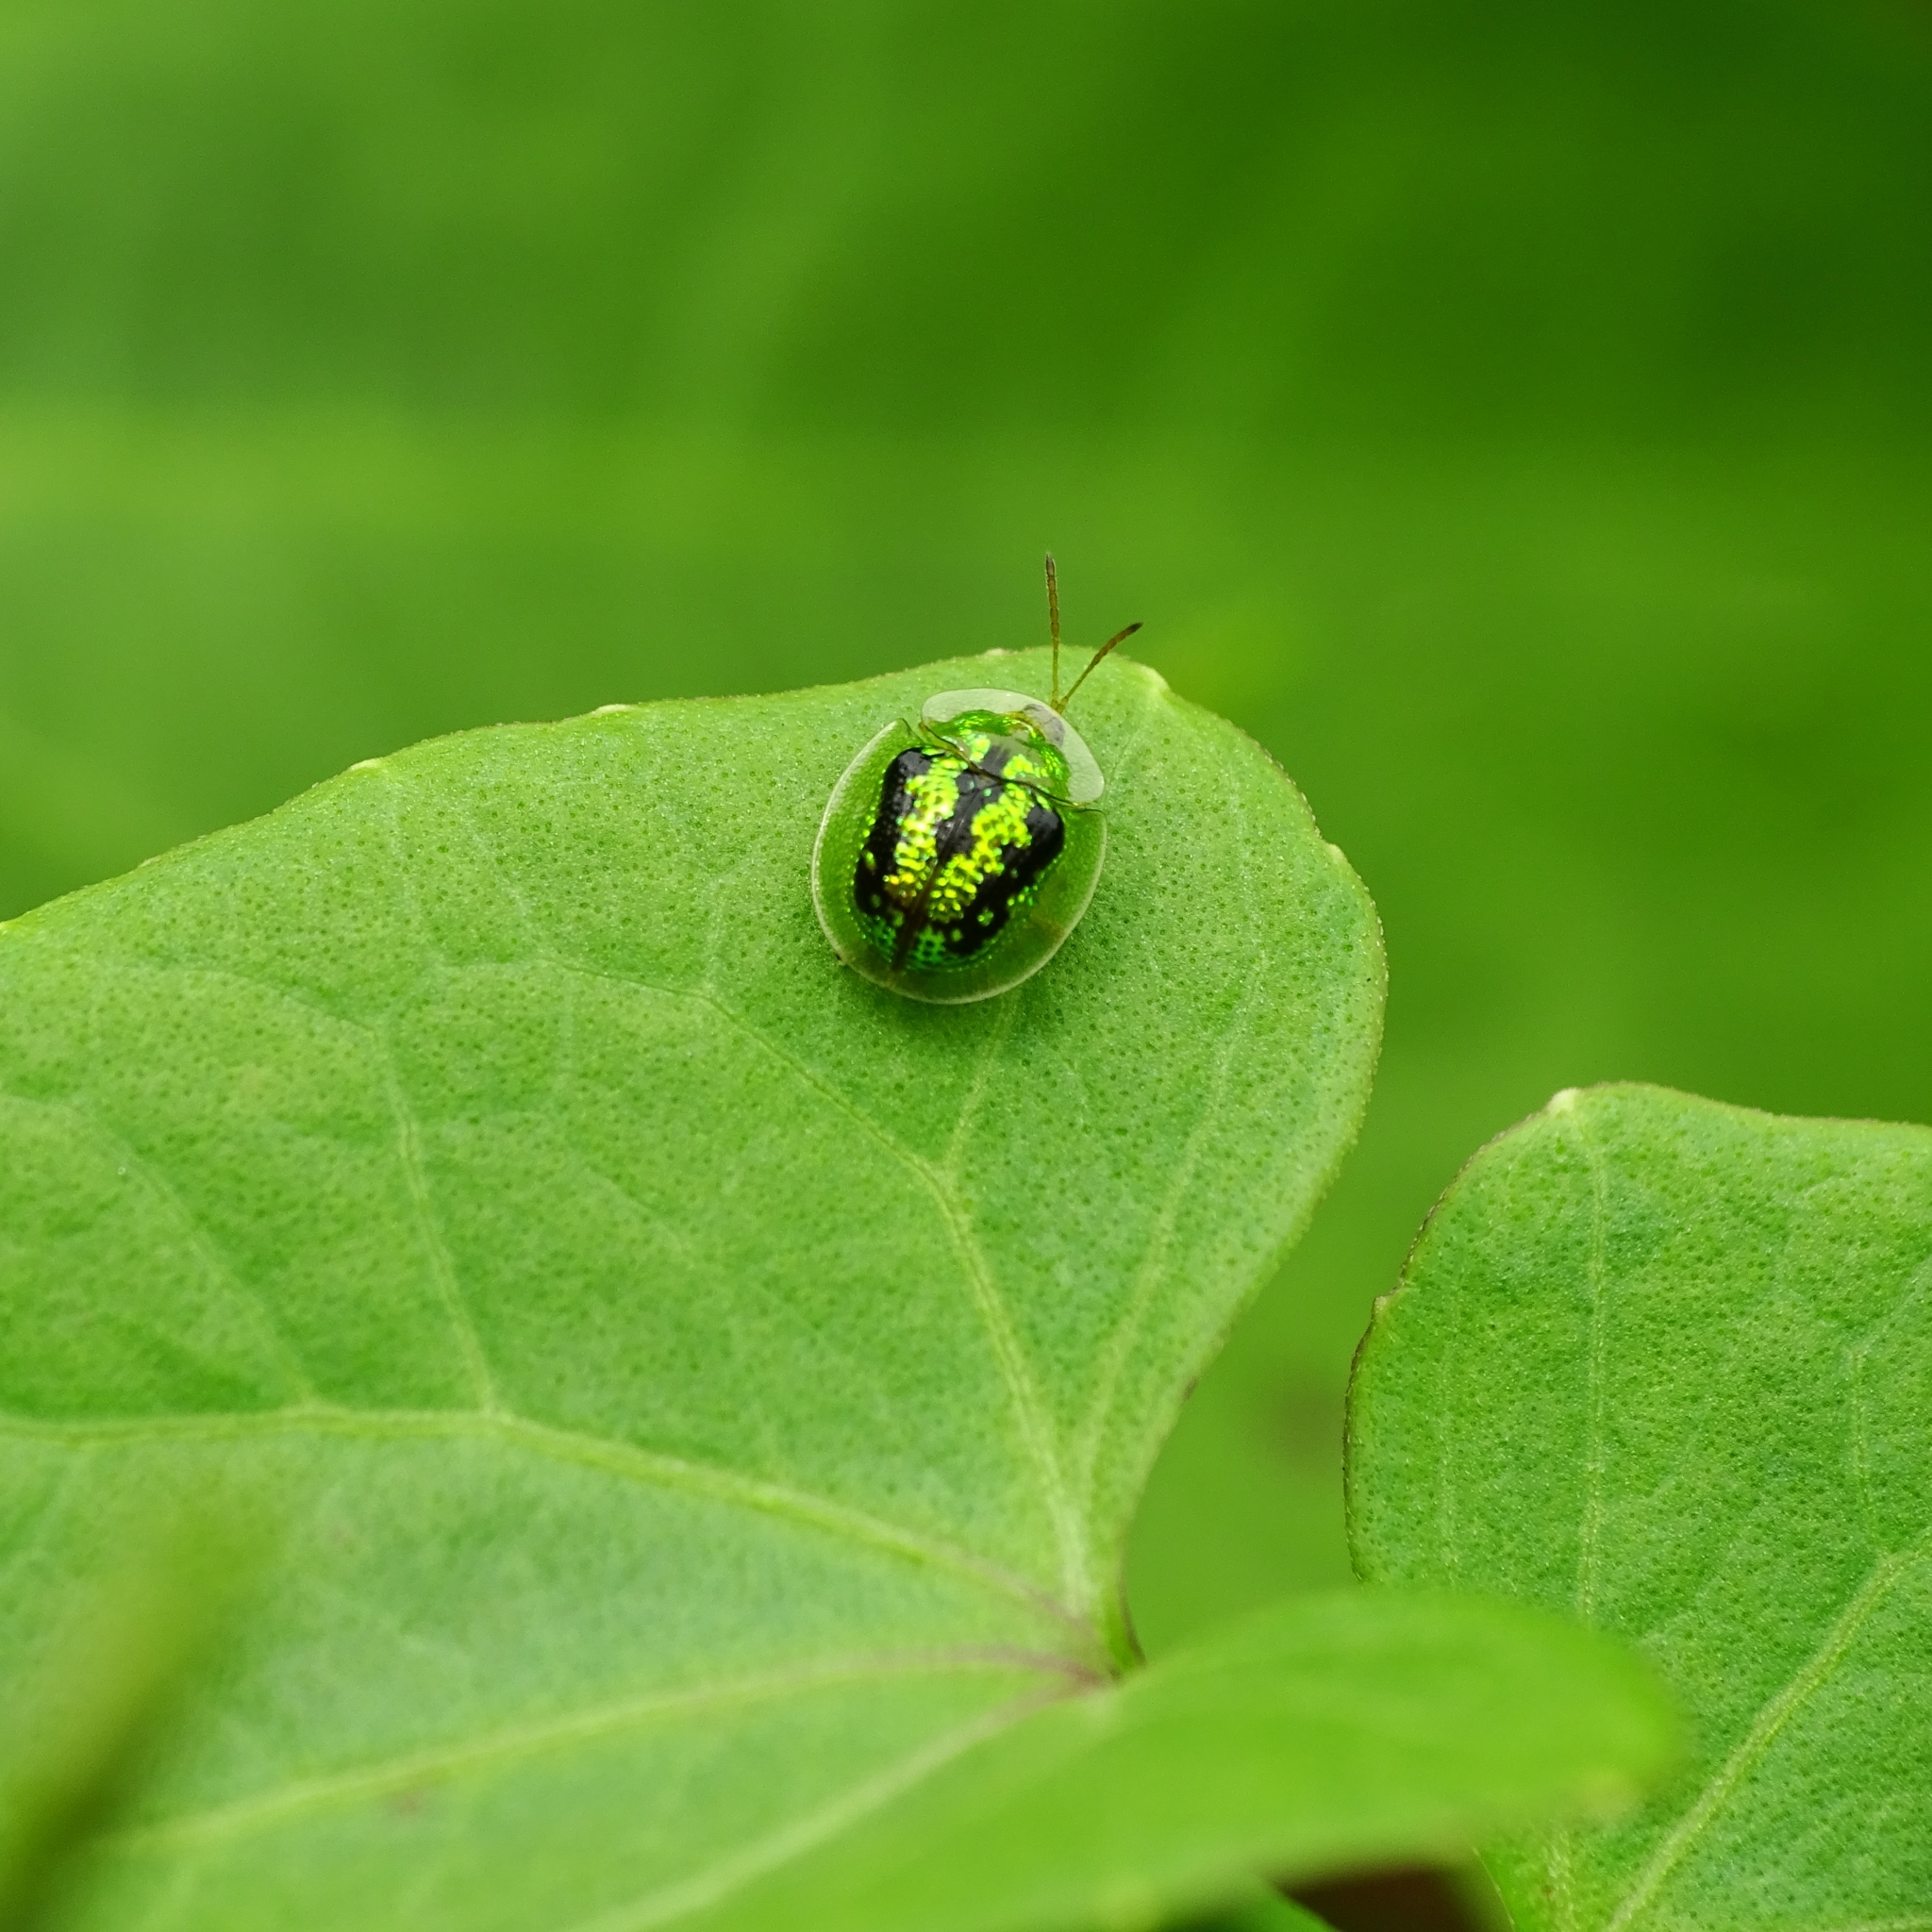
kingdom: Animalia
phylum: Arthropoda
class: Insecta
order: Coleoptera
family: Chrysomelidae
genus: Cassida
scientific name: Cassida circumdata
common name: Tortoise beetle
